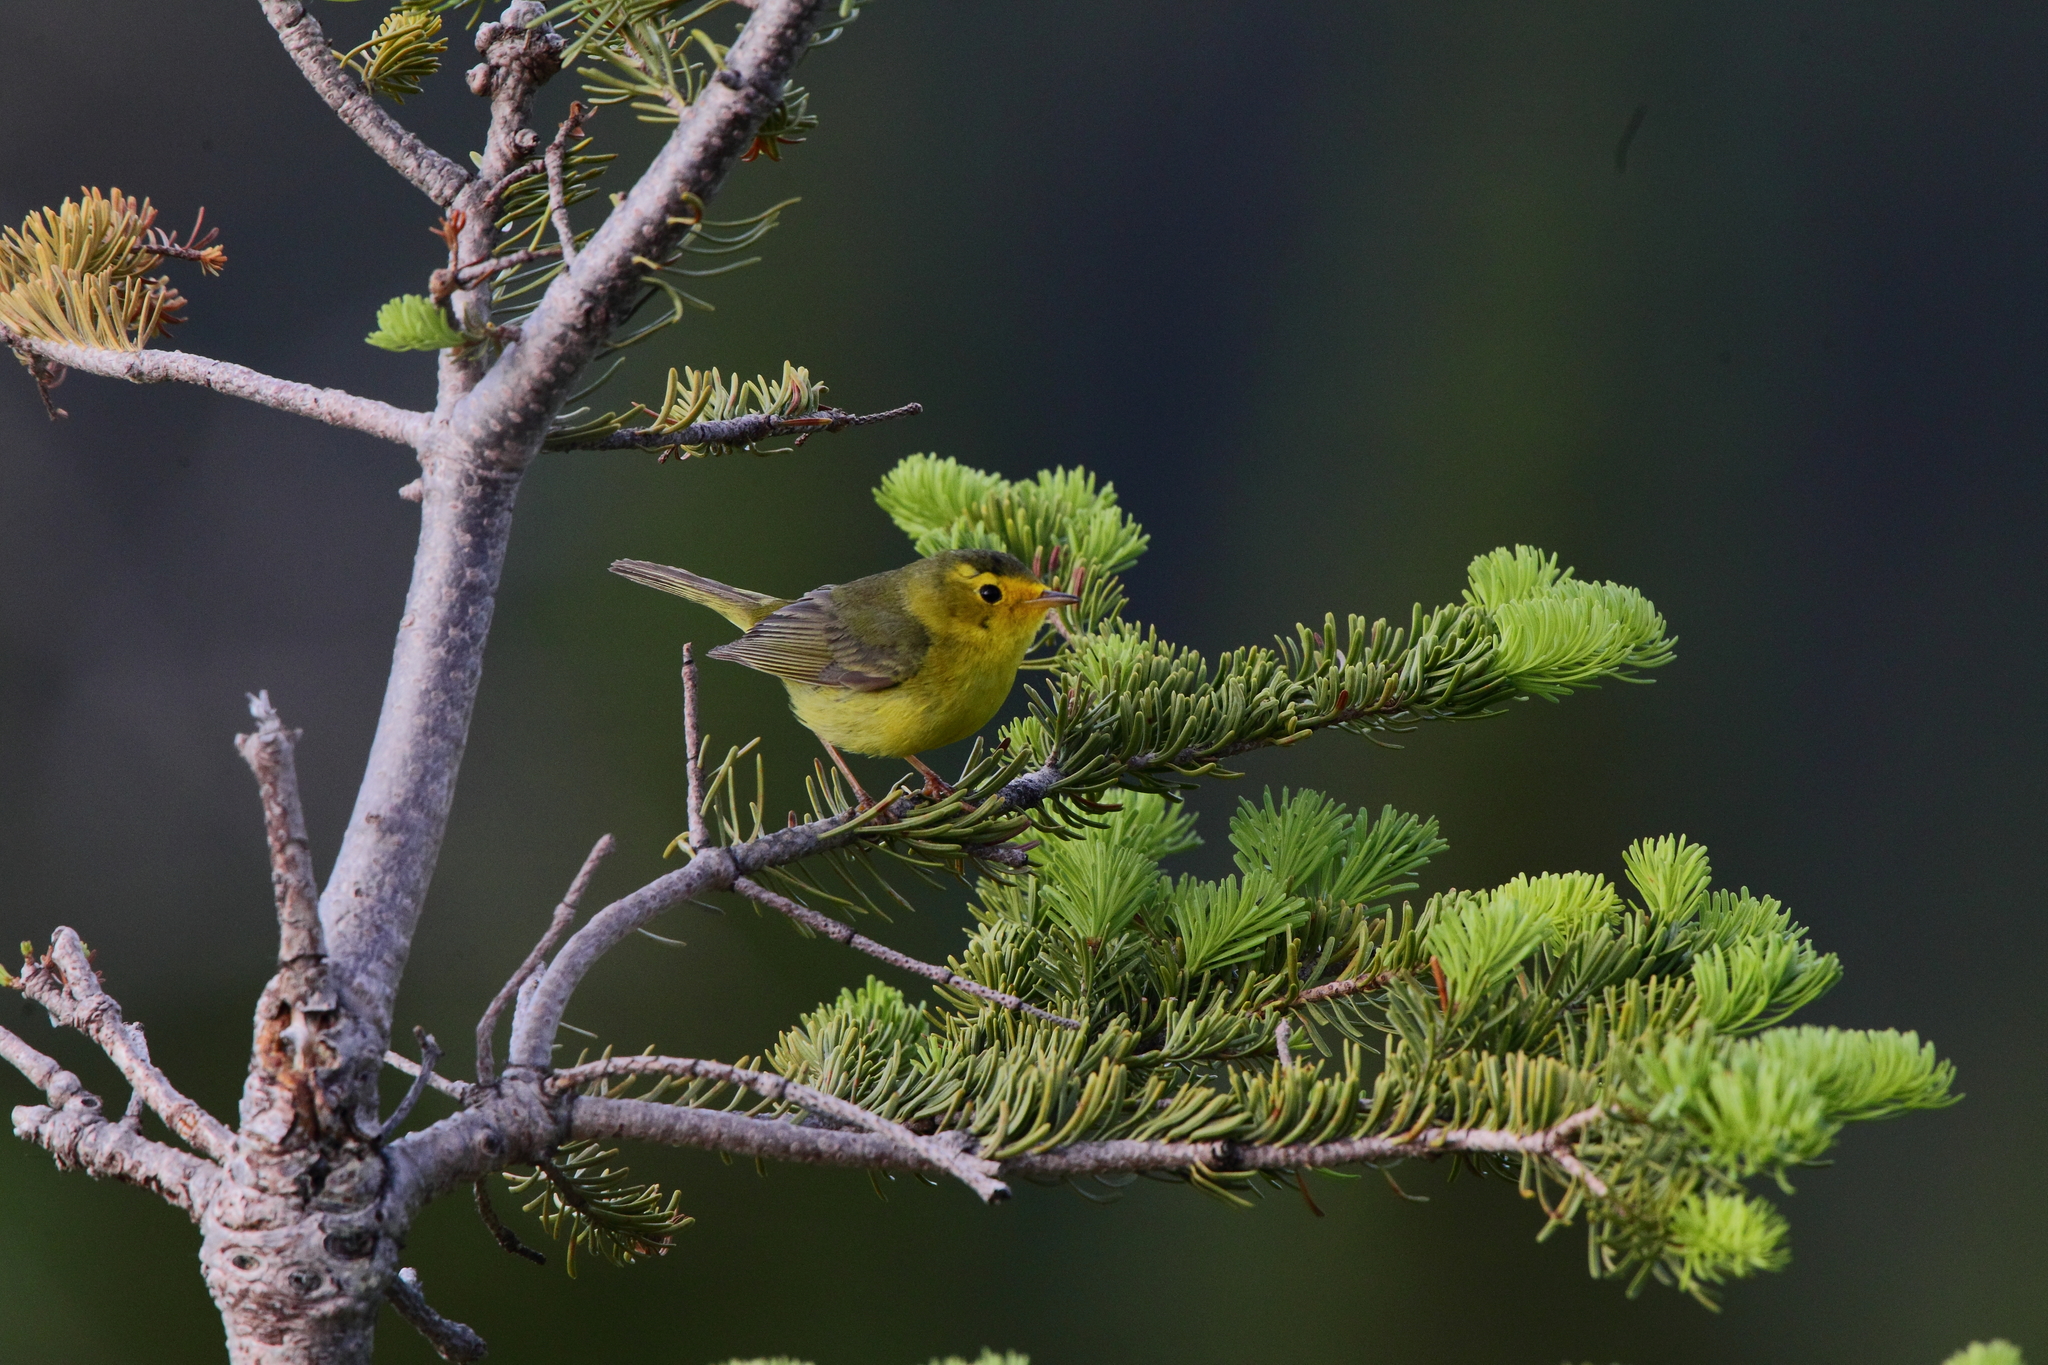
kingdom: Animalia
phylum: Chordata
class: Aves
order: Passeriformes
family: Parulidae
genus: Cardellina
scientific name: Cardellina pusilla
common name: Wilson's warbler
